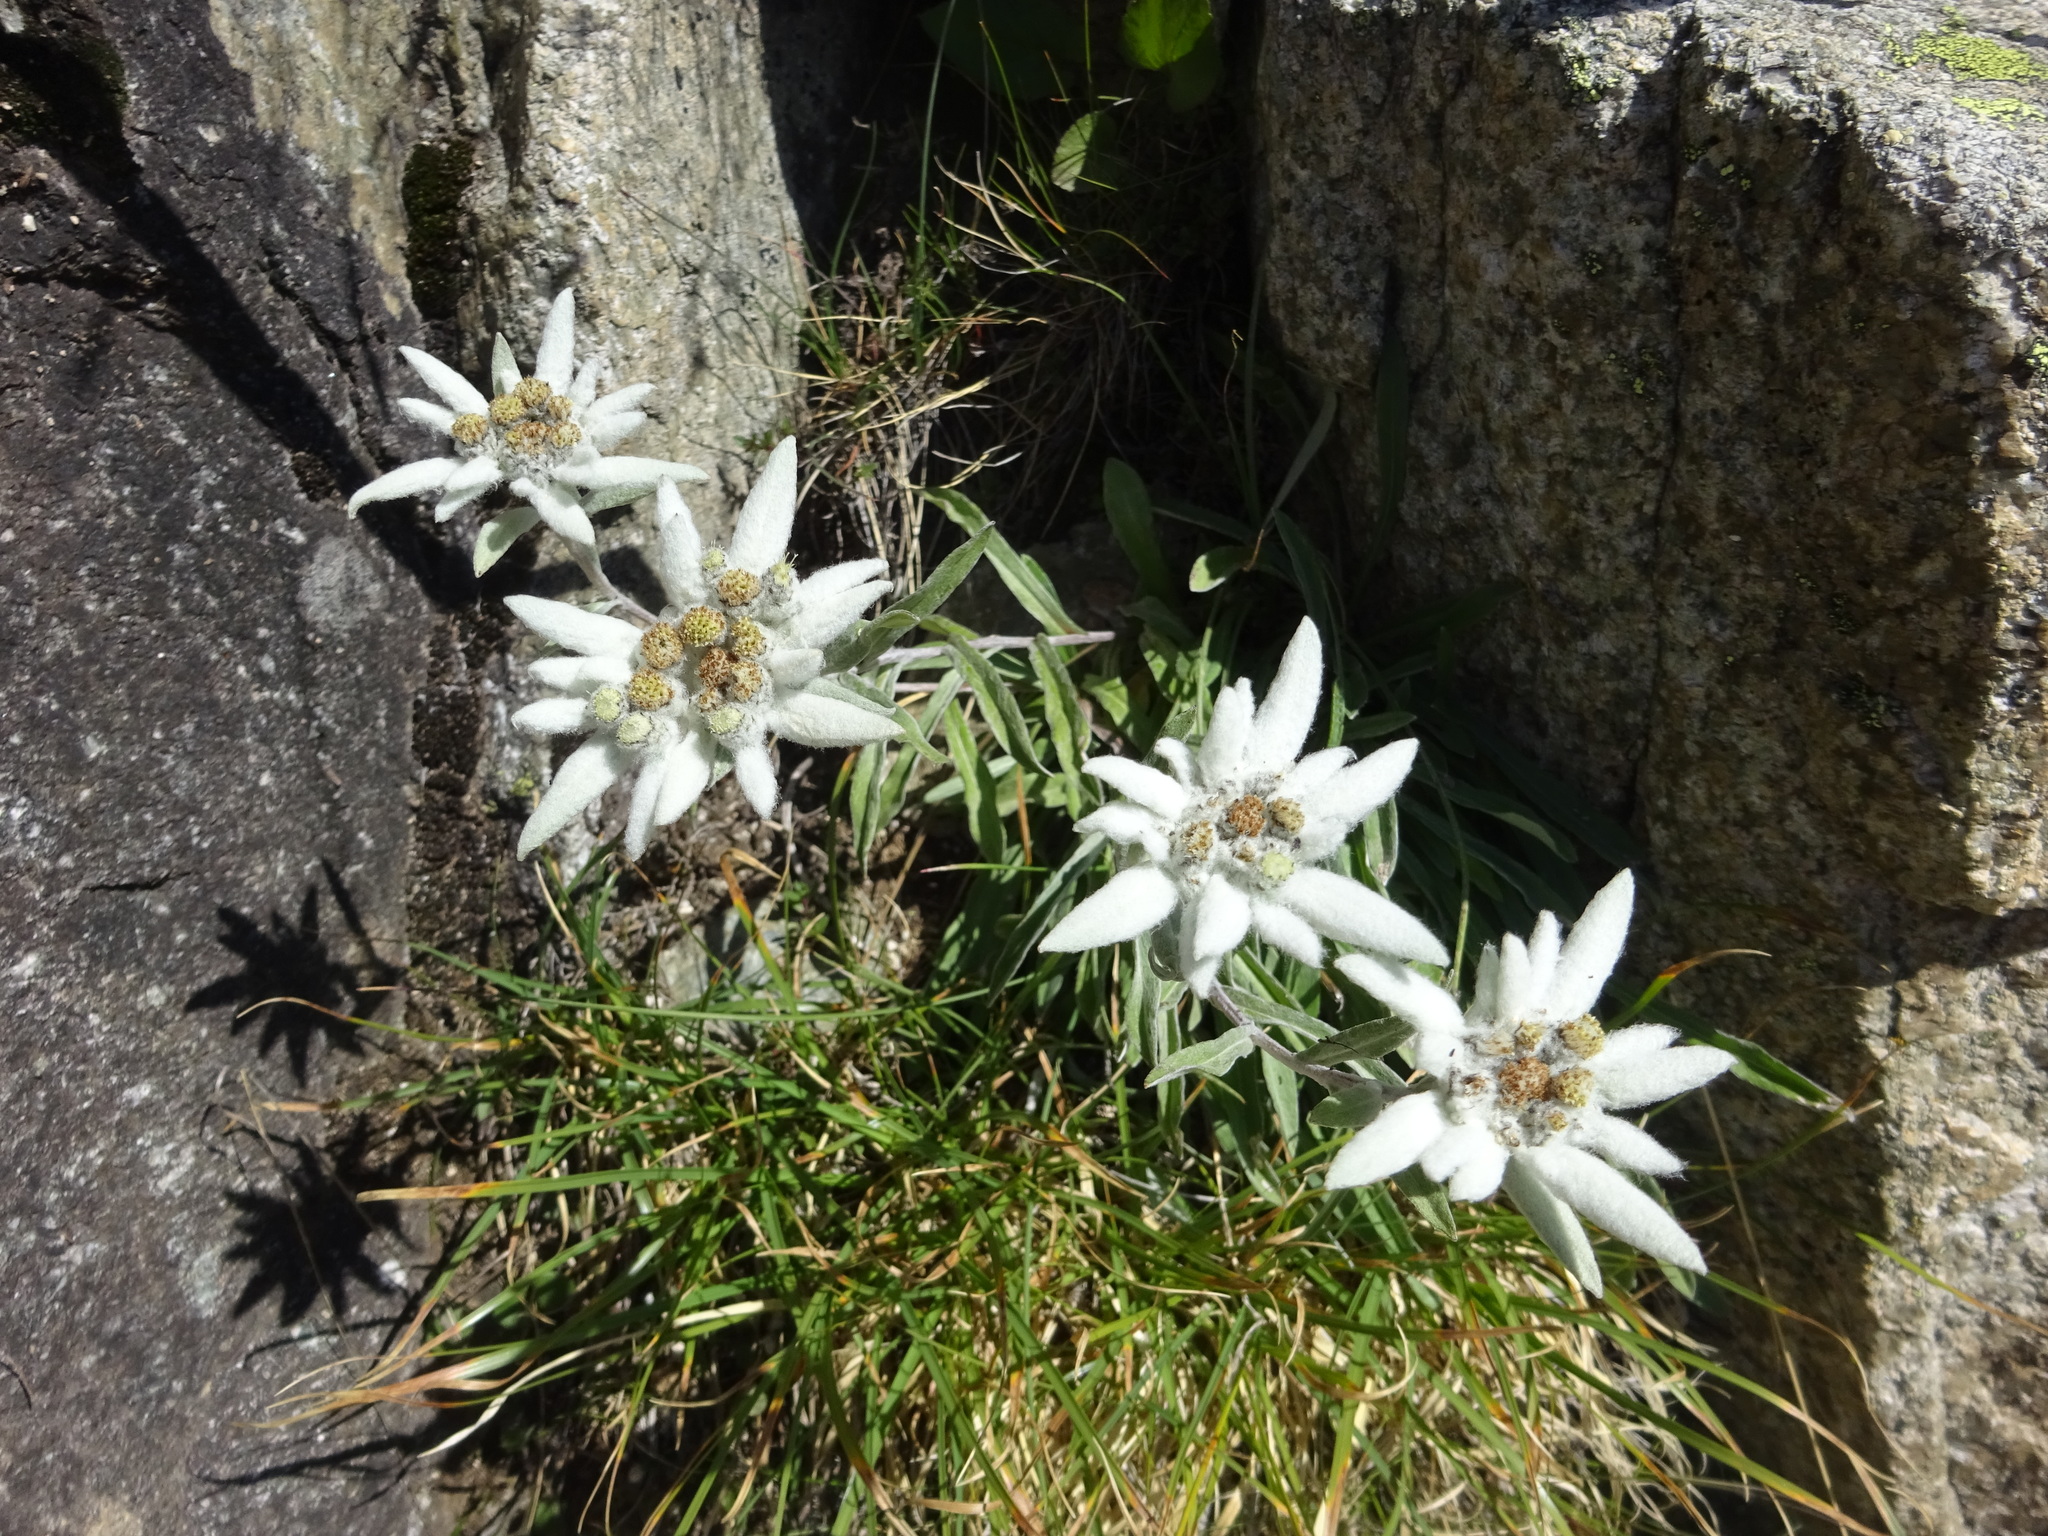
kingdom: Plantae
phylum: Tracheophyta
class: Magnoliopsida
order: Asterales
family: Asteraceae
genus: Leontopodium
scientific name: Leontopodium nivale
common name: Edelweiss
